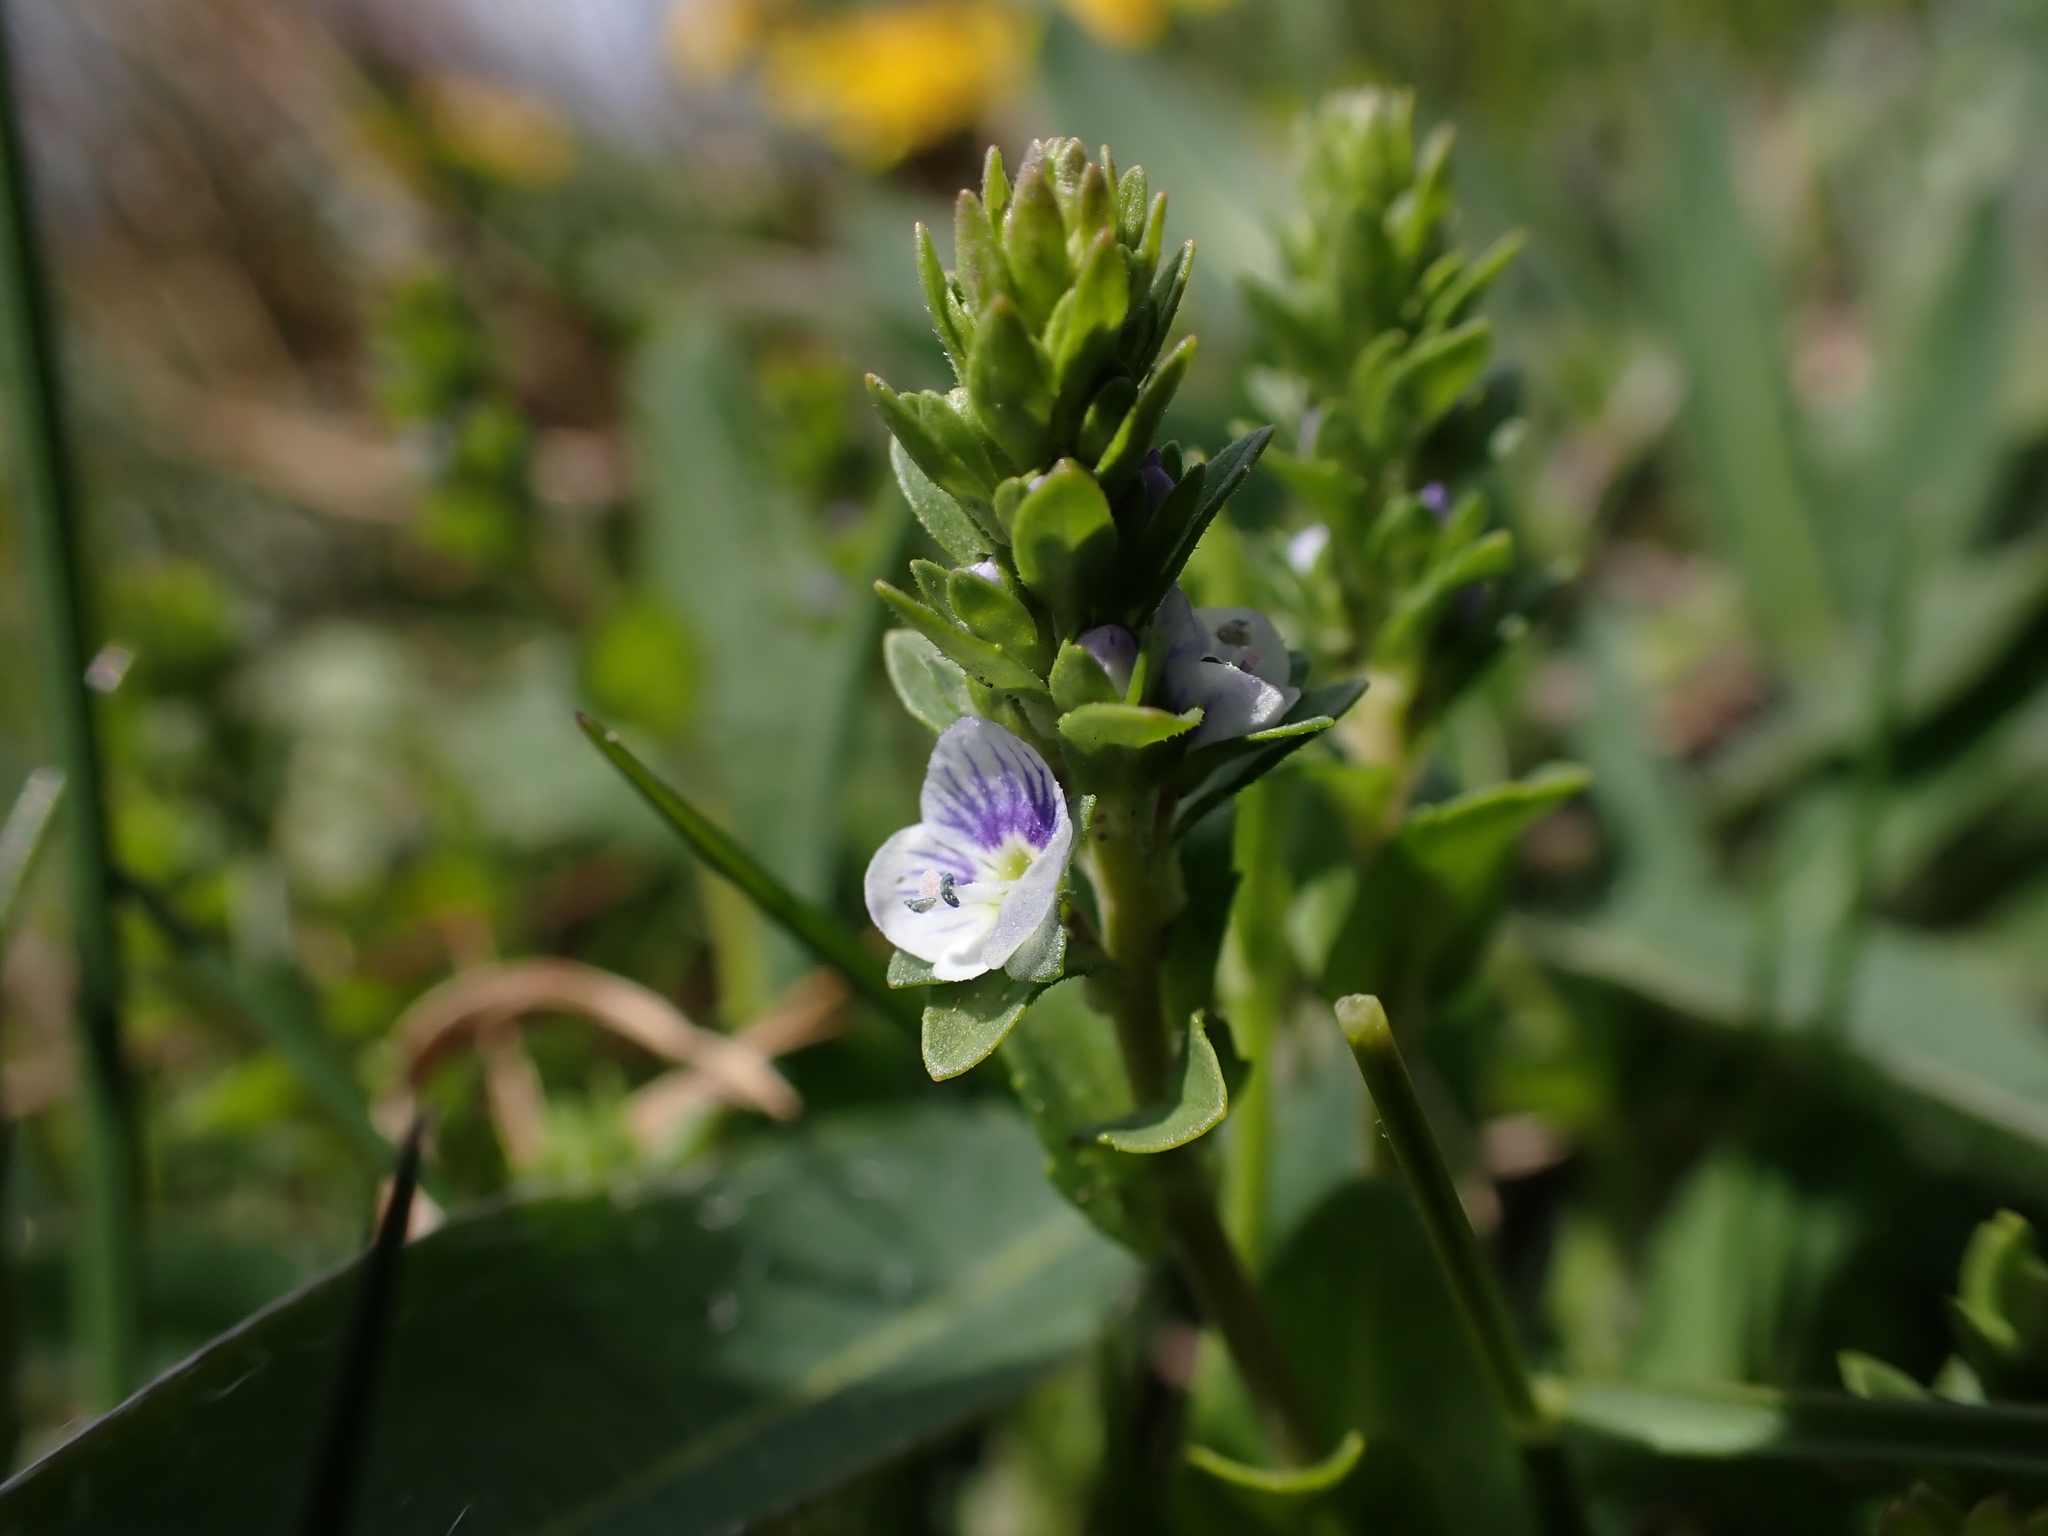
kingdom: Plantae
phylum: Tracheophyta
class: Magnoliopsida
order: Lamiales
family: Plantaginaceae
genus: Veronica
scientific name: Veronica serpyllifolia
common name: Thyme-leaved speedwell
